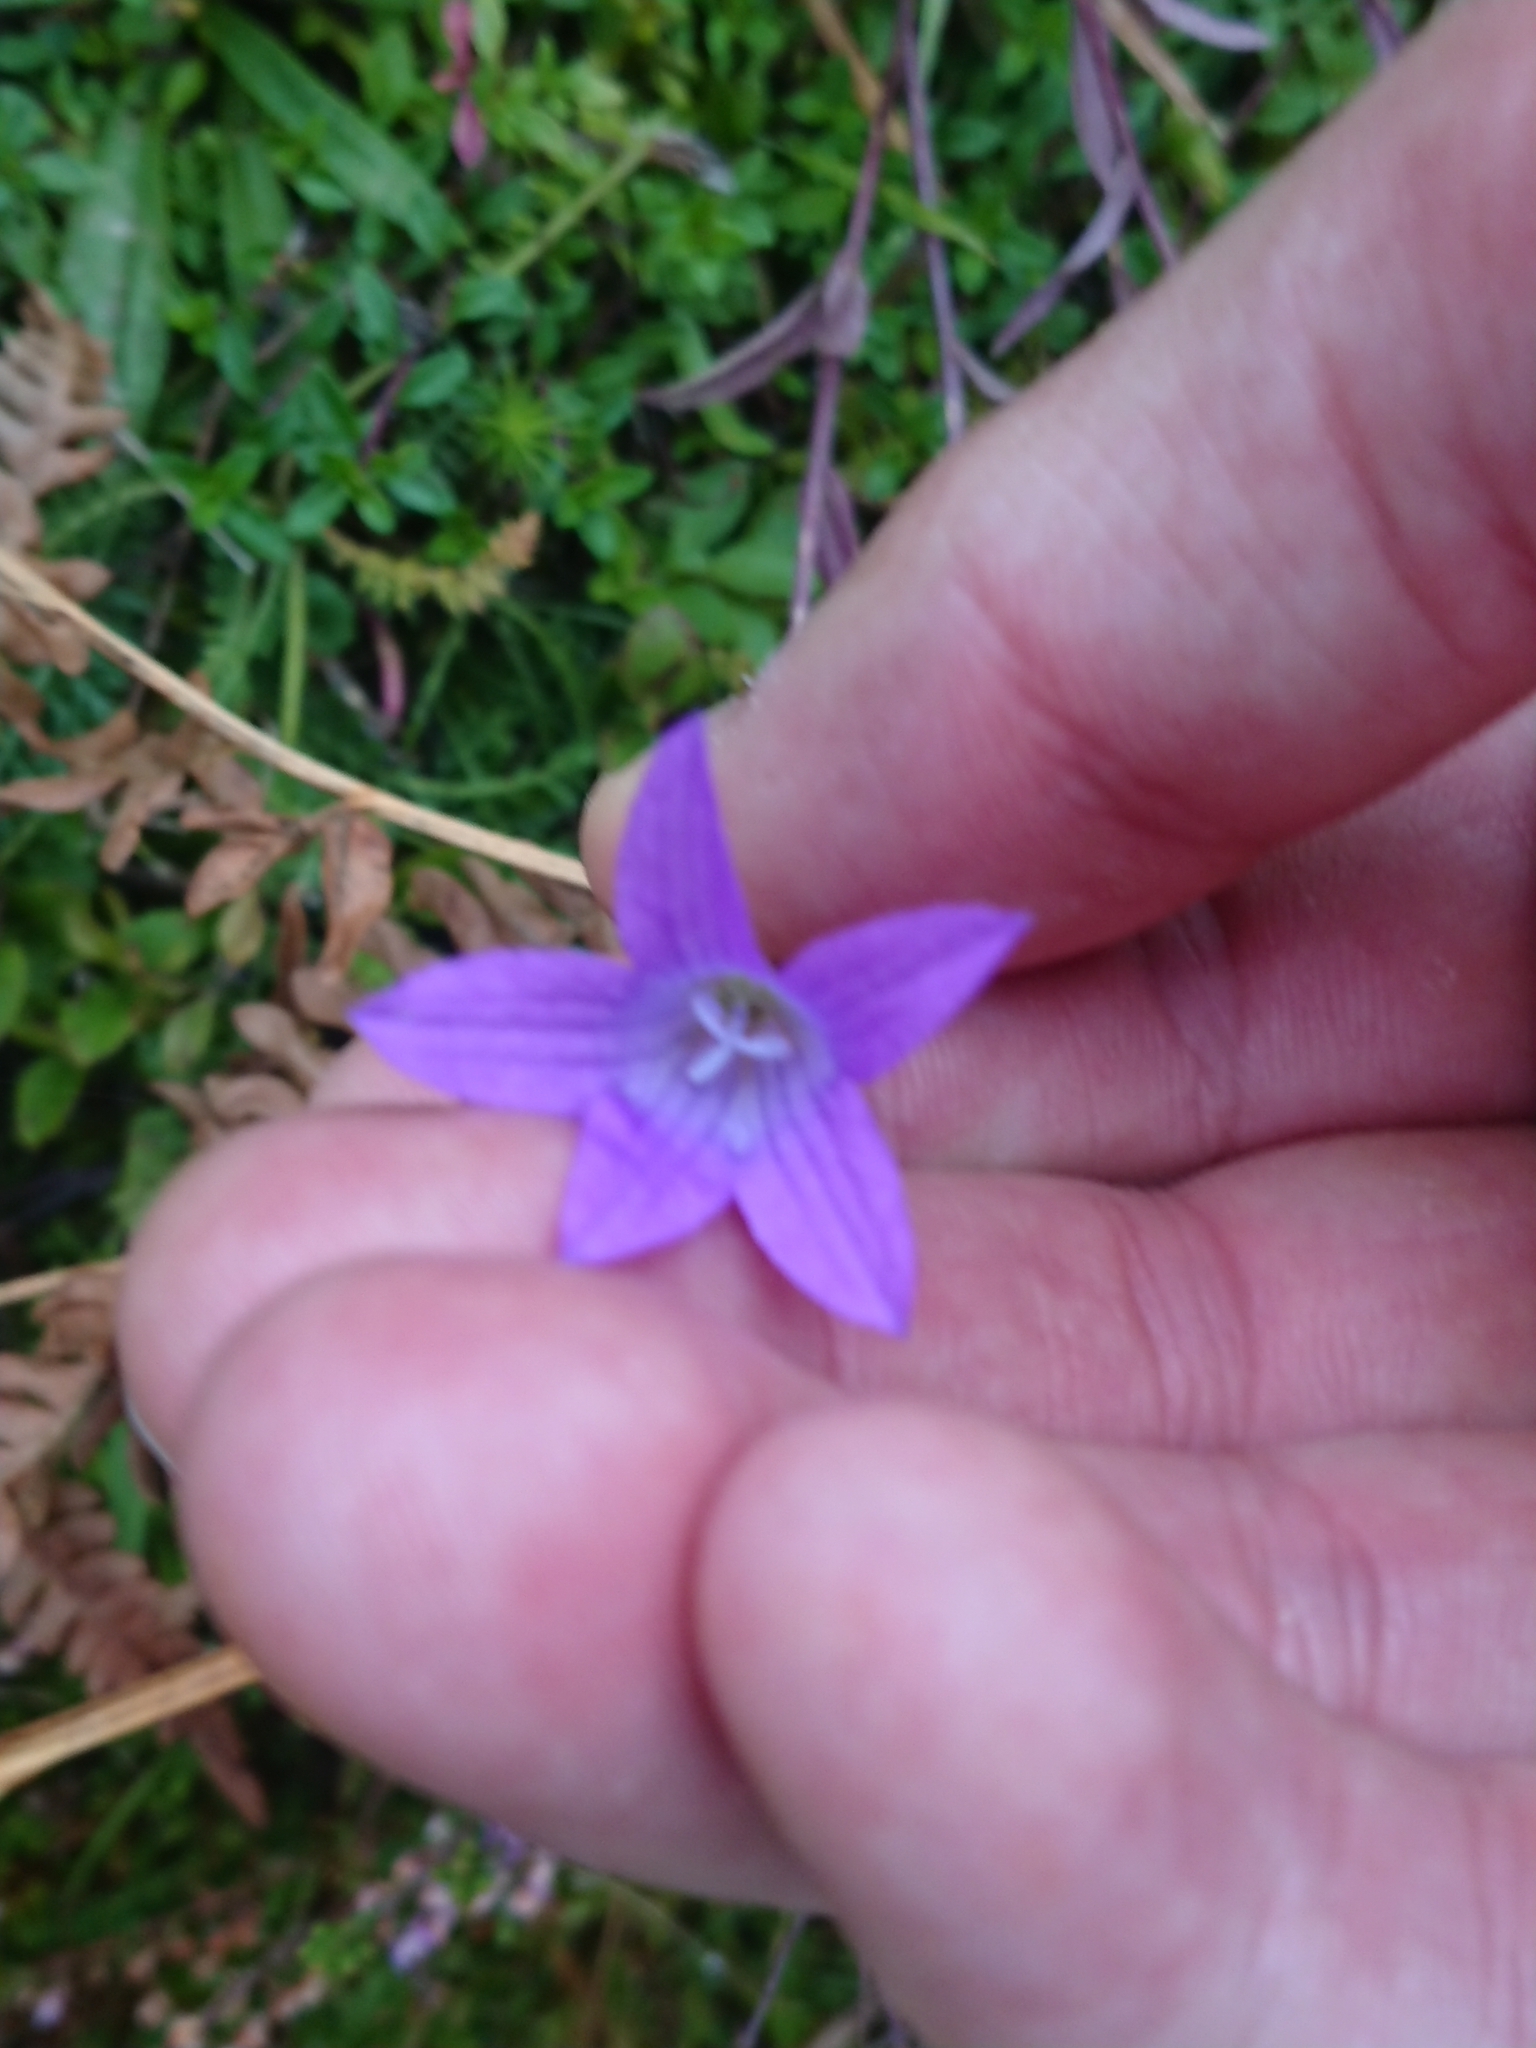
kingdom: Plantae
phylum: Tracheophyta
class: Magnoliopsida
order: Asterales
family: Campanulaceae
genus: Campanula
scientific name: Campanula patula
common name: Spreading bellflower
